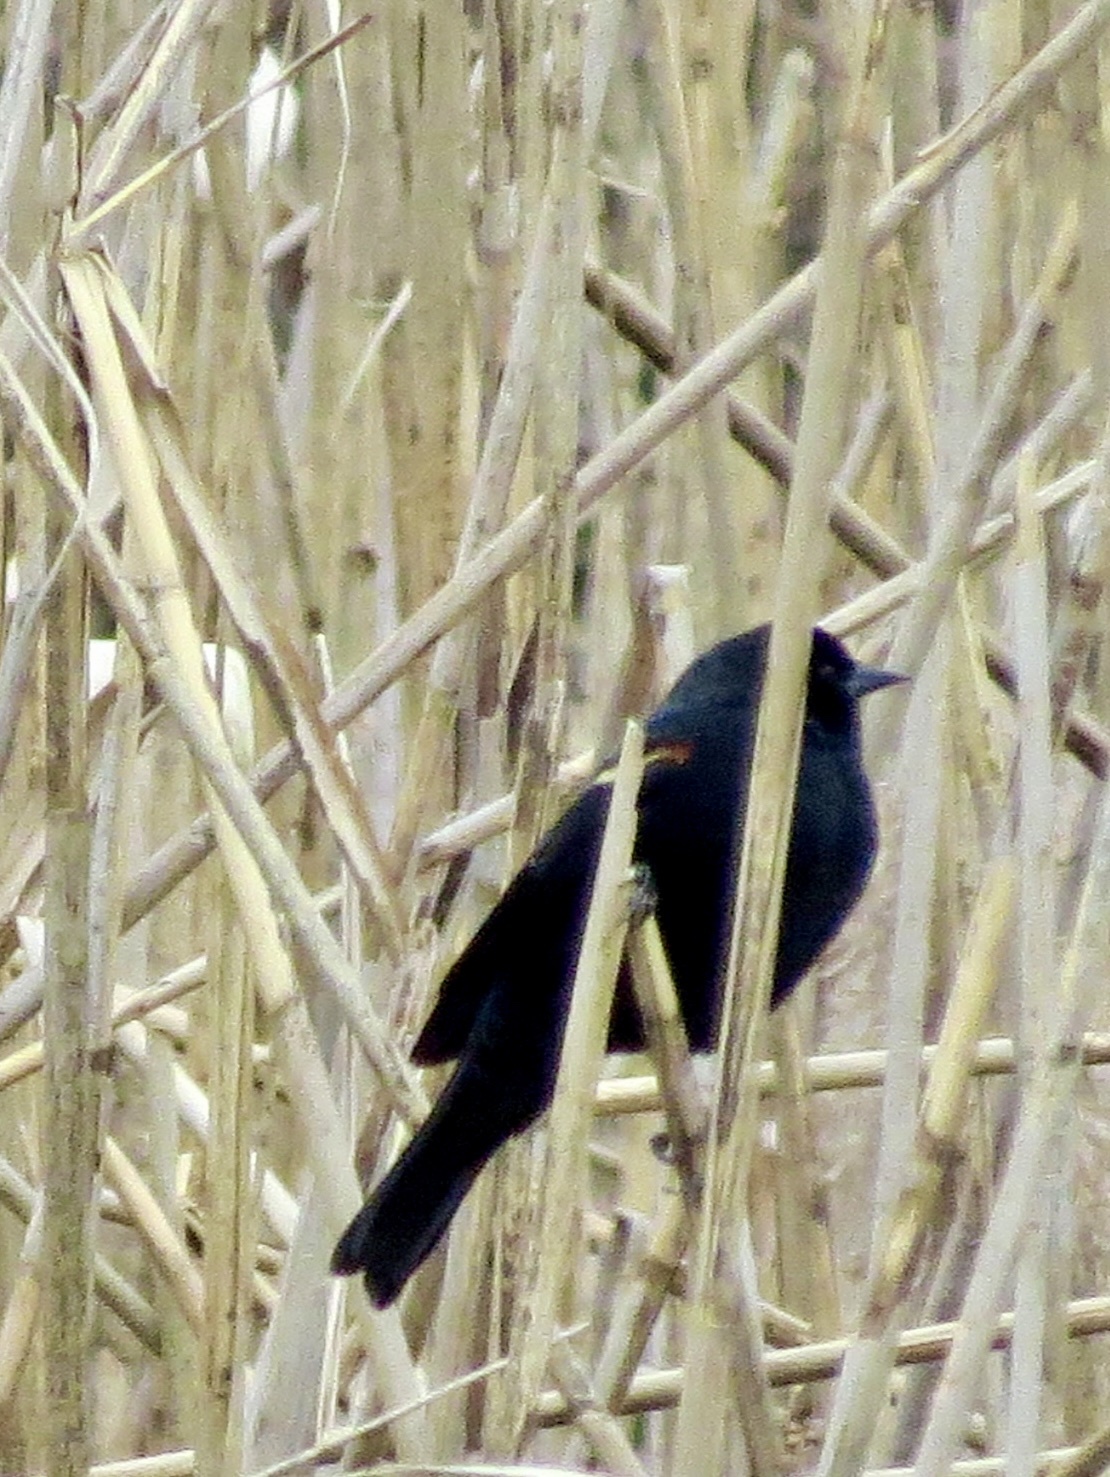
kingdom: Animalia
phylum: Chordata
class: Aves
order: Passeriformes
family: Icteridae
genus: Agelaius
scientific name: Agelaius phoeniceus
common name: Red-winged blackbird
